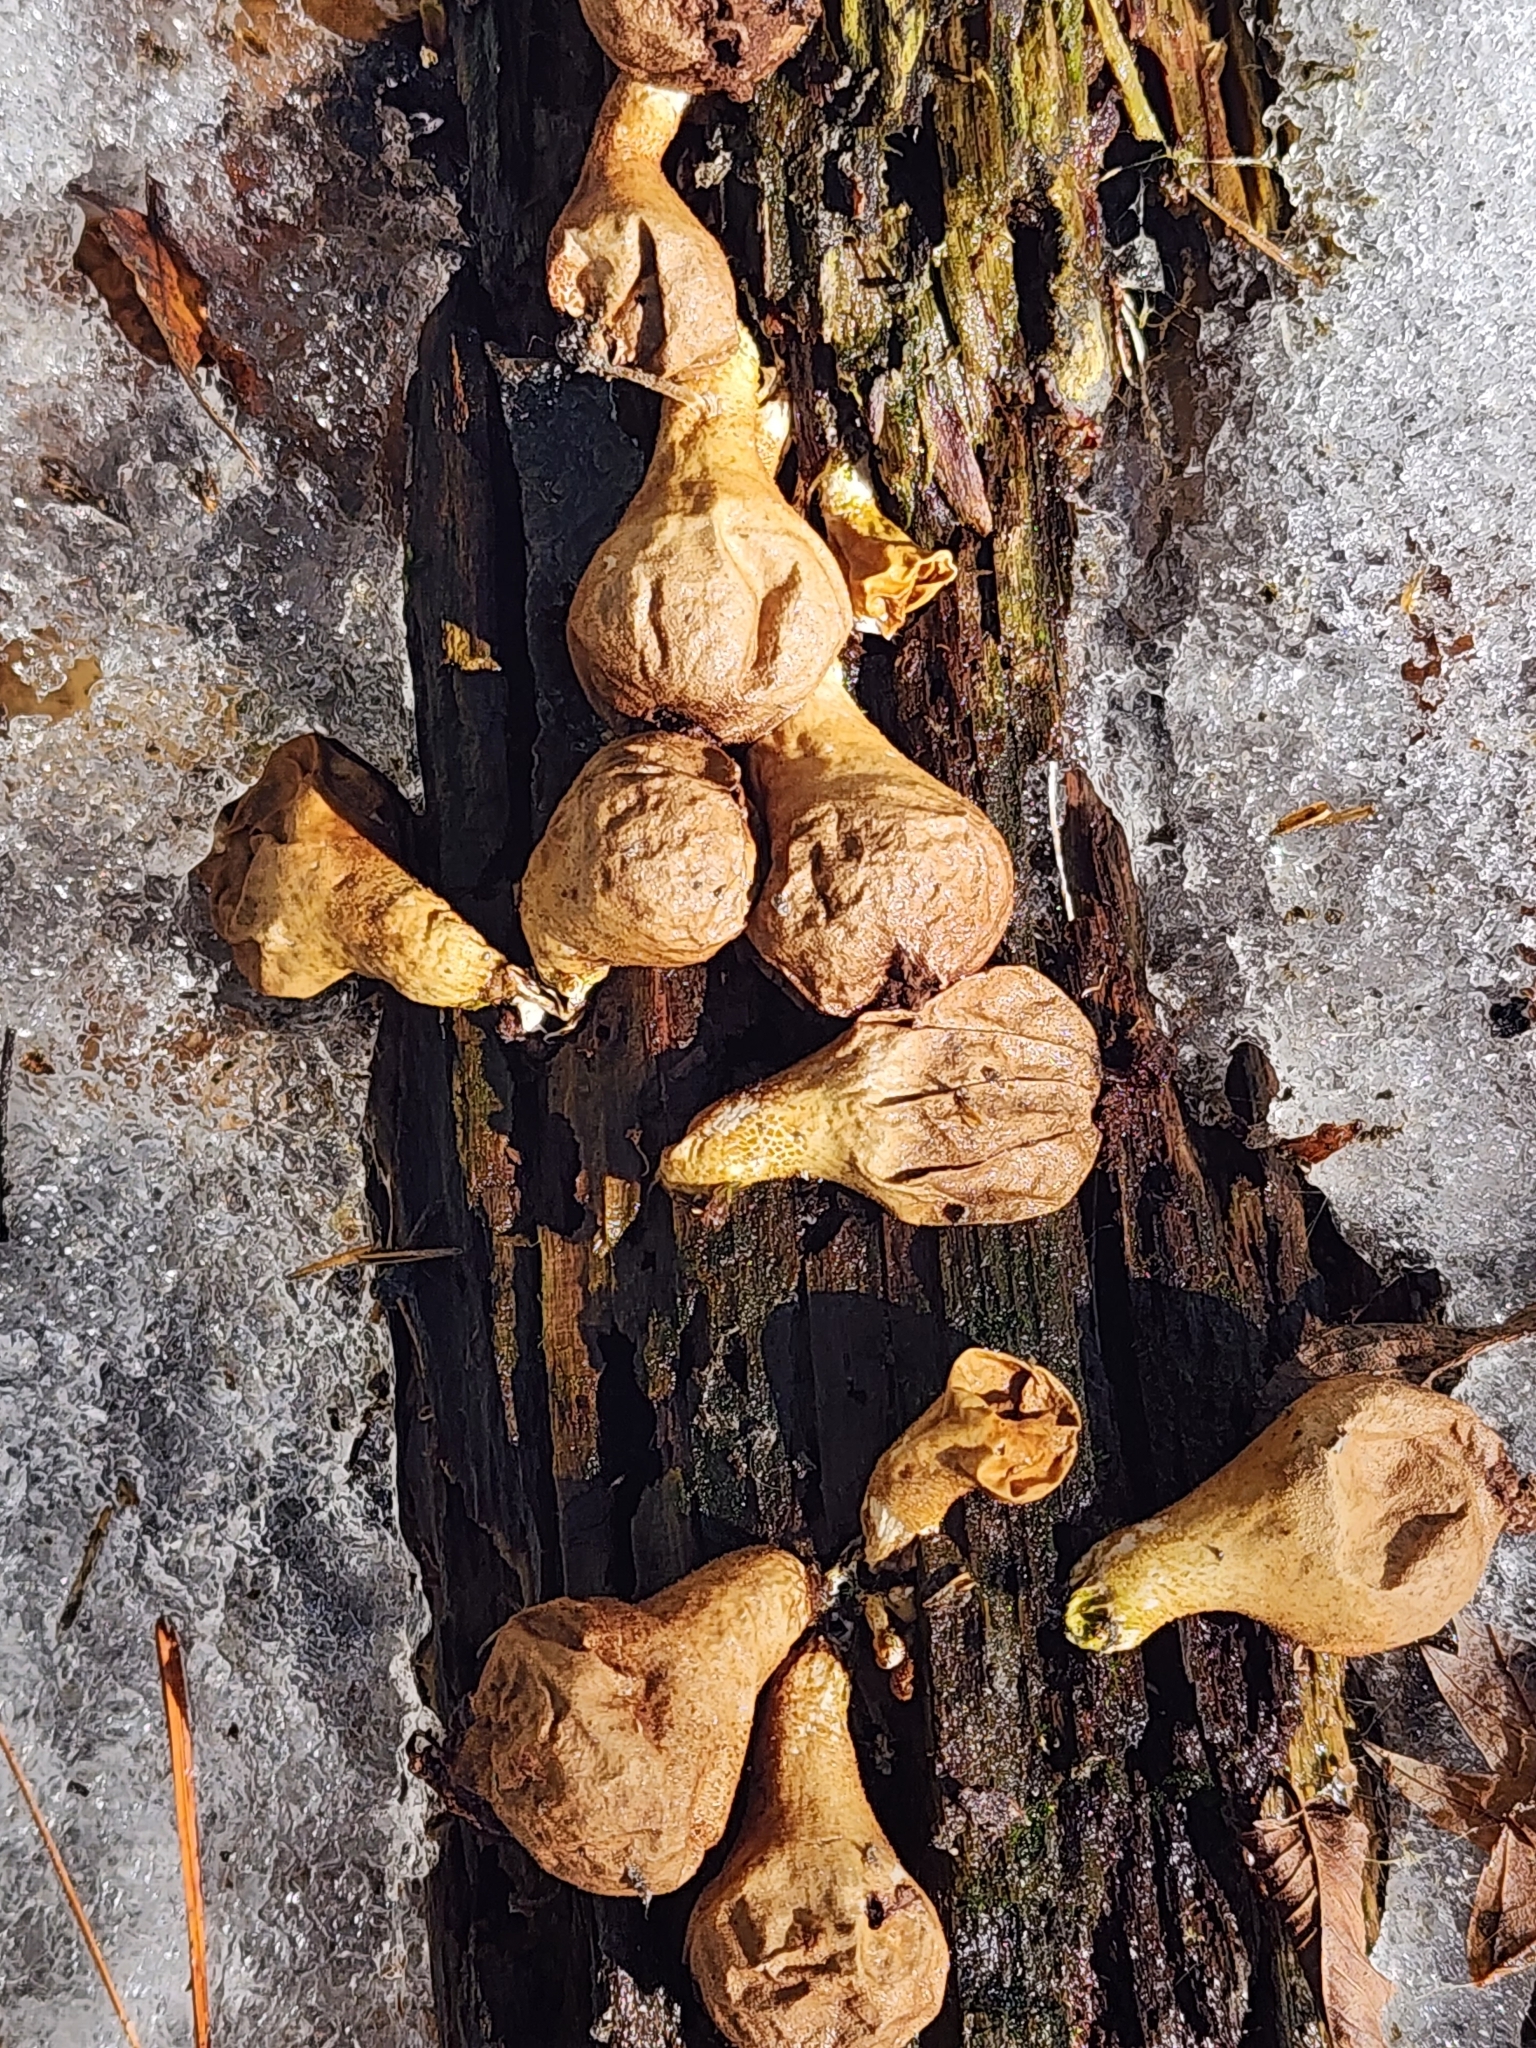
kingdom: Fungi
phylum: Basidiomycota
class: Agaricomycetes
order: Agaricales
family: Lycoperdaceae
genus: Apioperdon
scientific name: Apioperdon pyriforme
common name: Pear-shaped puffball
